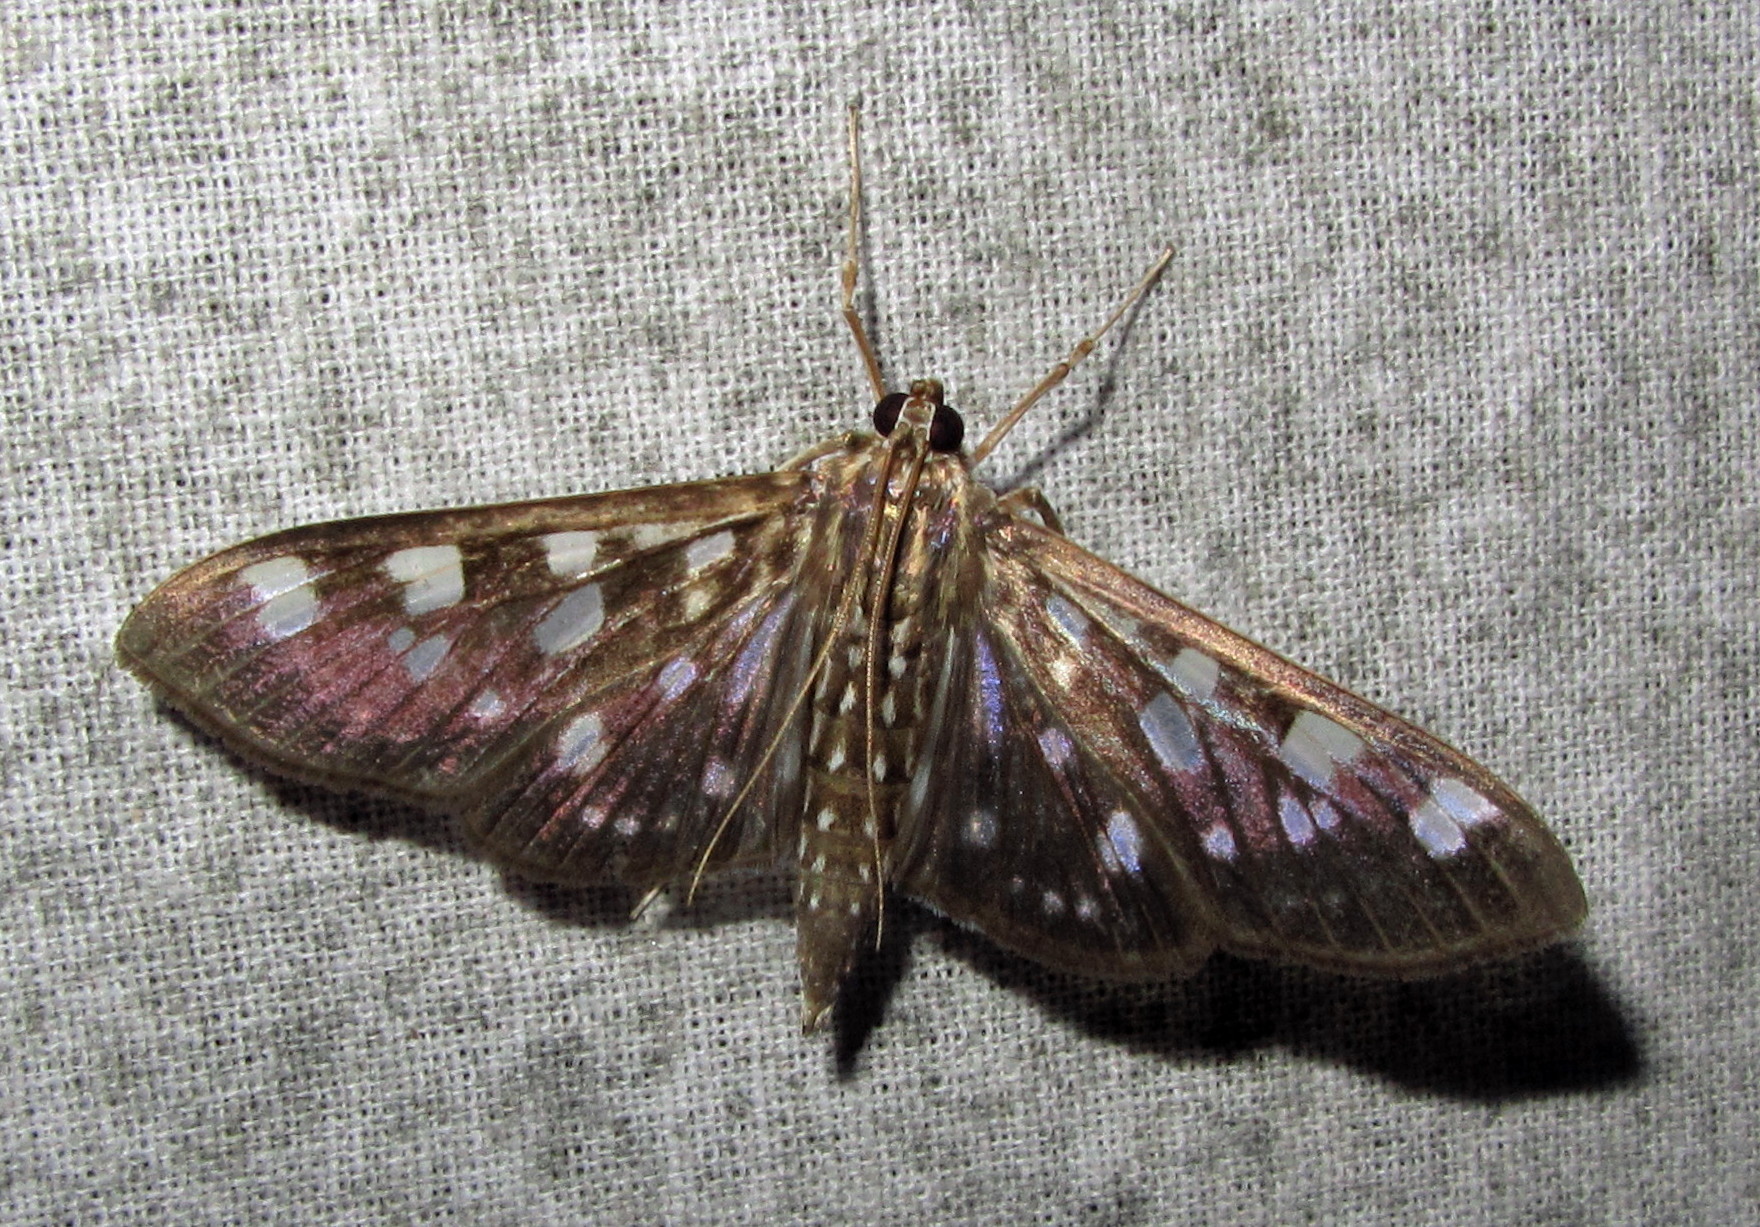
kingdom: Animalia
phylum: Arthropoda
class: Insecta
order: Lepidoptera
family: Crambidae
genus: Pygospila
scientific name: Pygospila tyres
